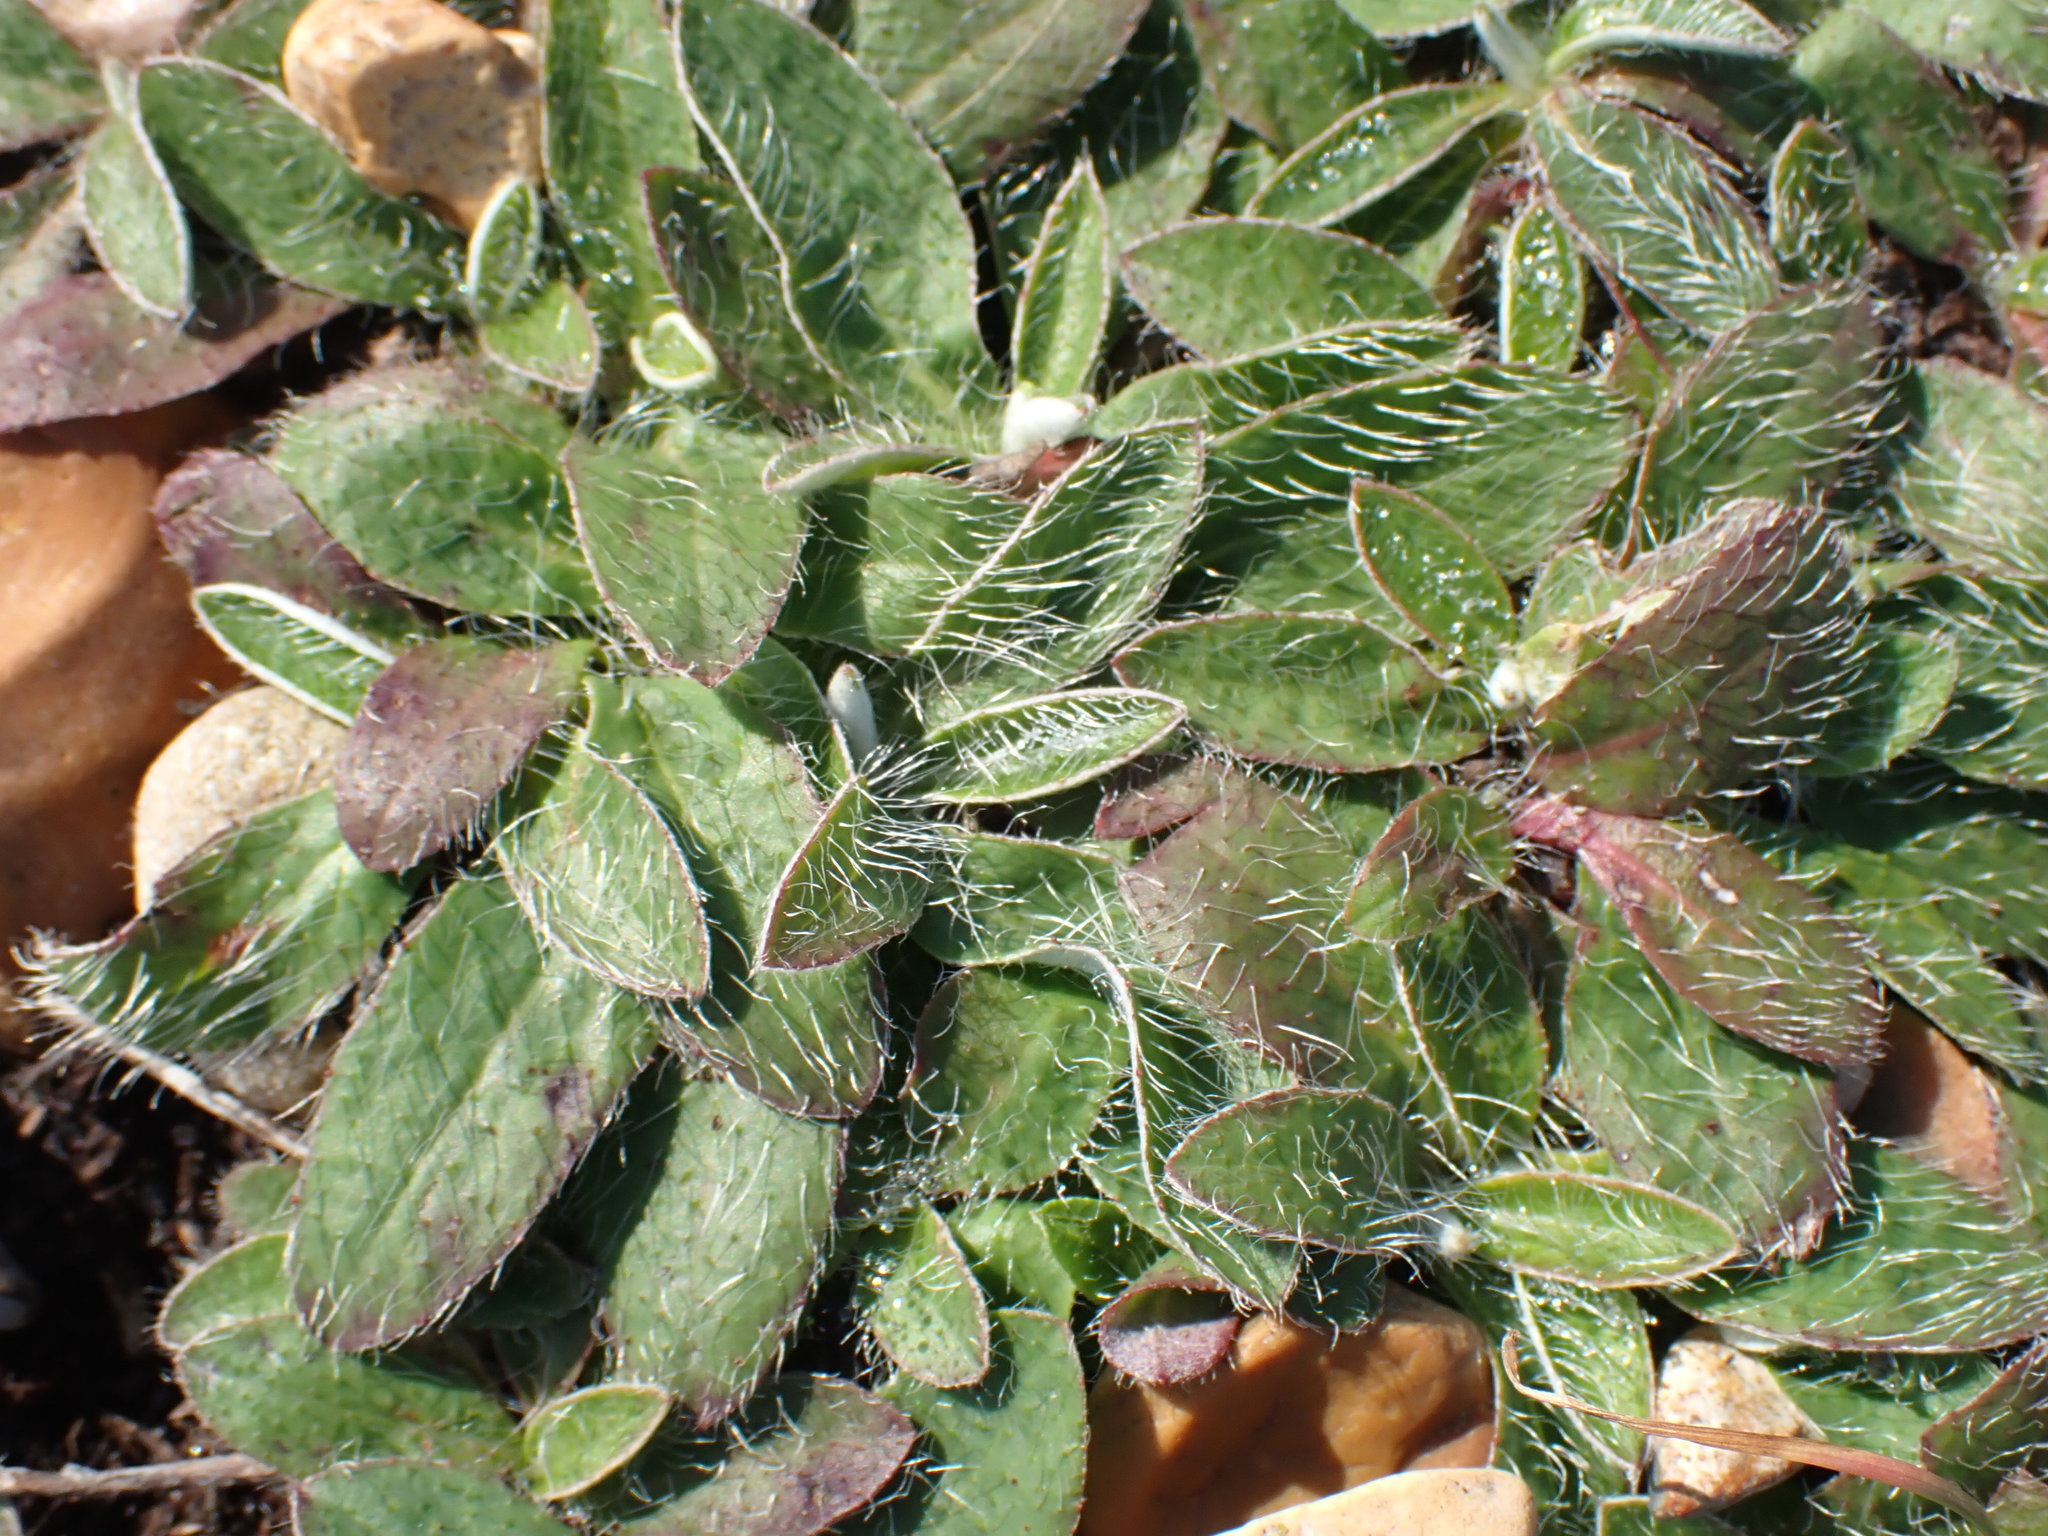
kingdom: Plantae
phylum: Tracheophyta
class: Magnoliopsida
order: Asterales
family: Asteraceae
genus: Pilosella
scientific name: Pilosella officinarum
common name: Mouse-ear hawkweed
